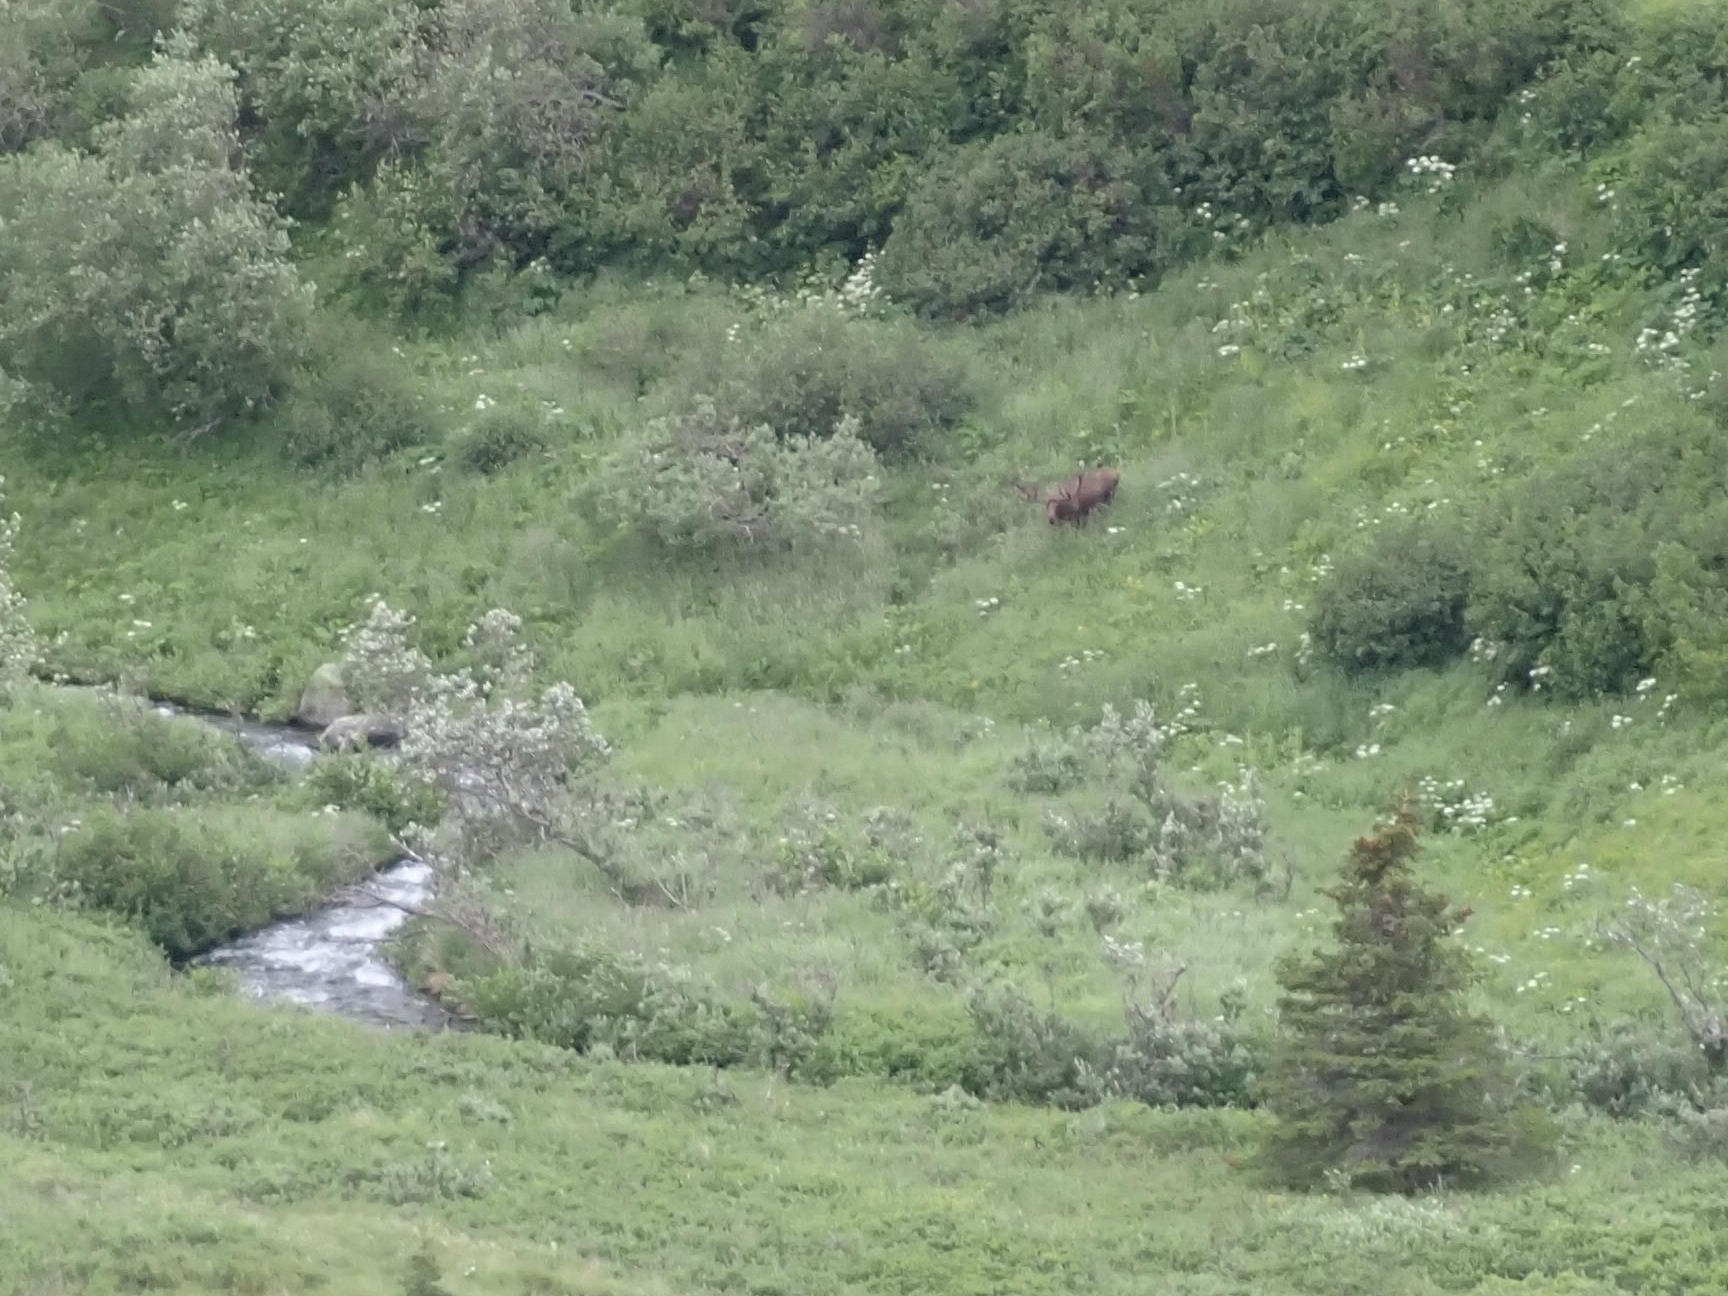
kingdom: Animalia
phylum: Chordata
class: Mammalia
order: Artiodactyla
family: Cervidae
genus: Alces
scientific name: Alces alces
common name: Moose
